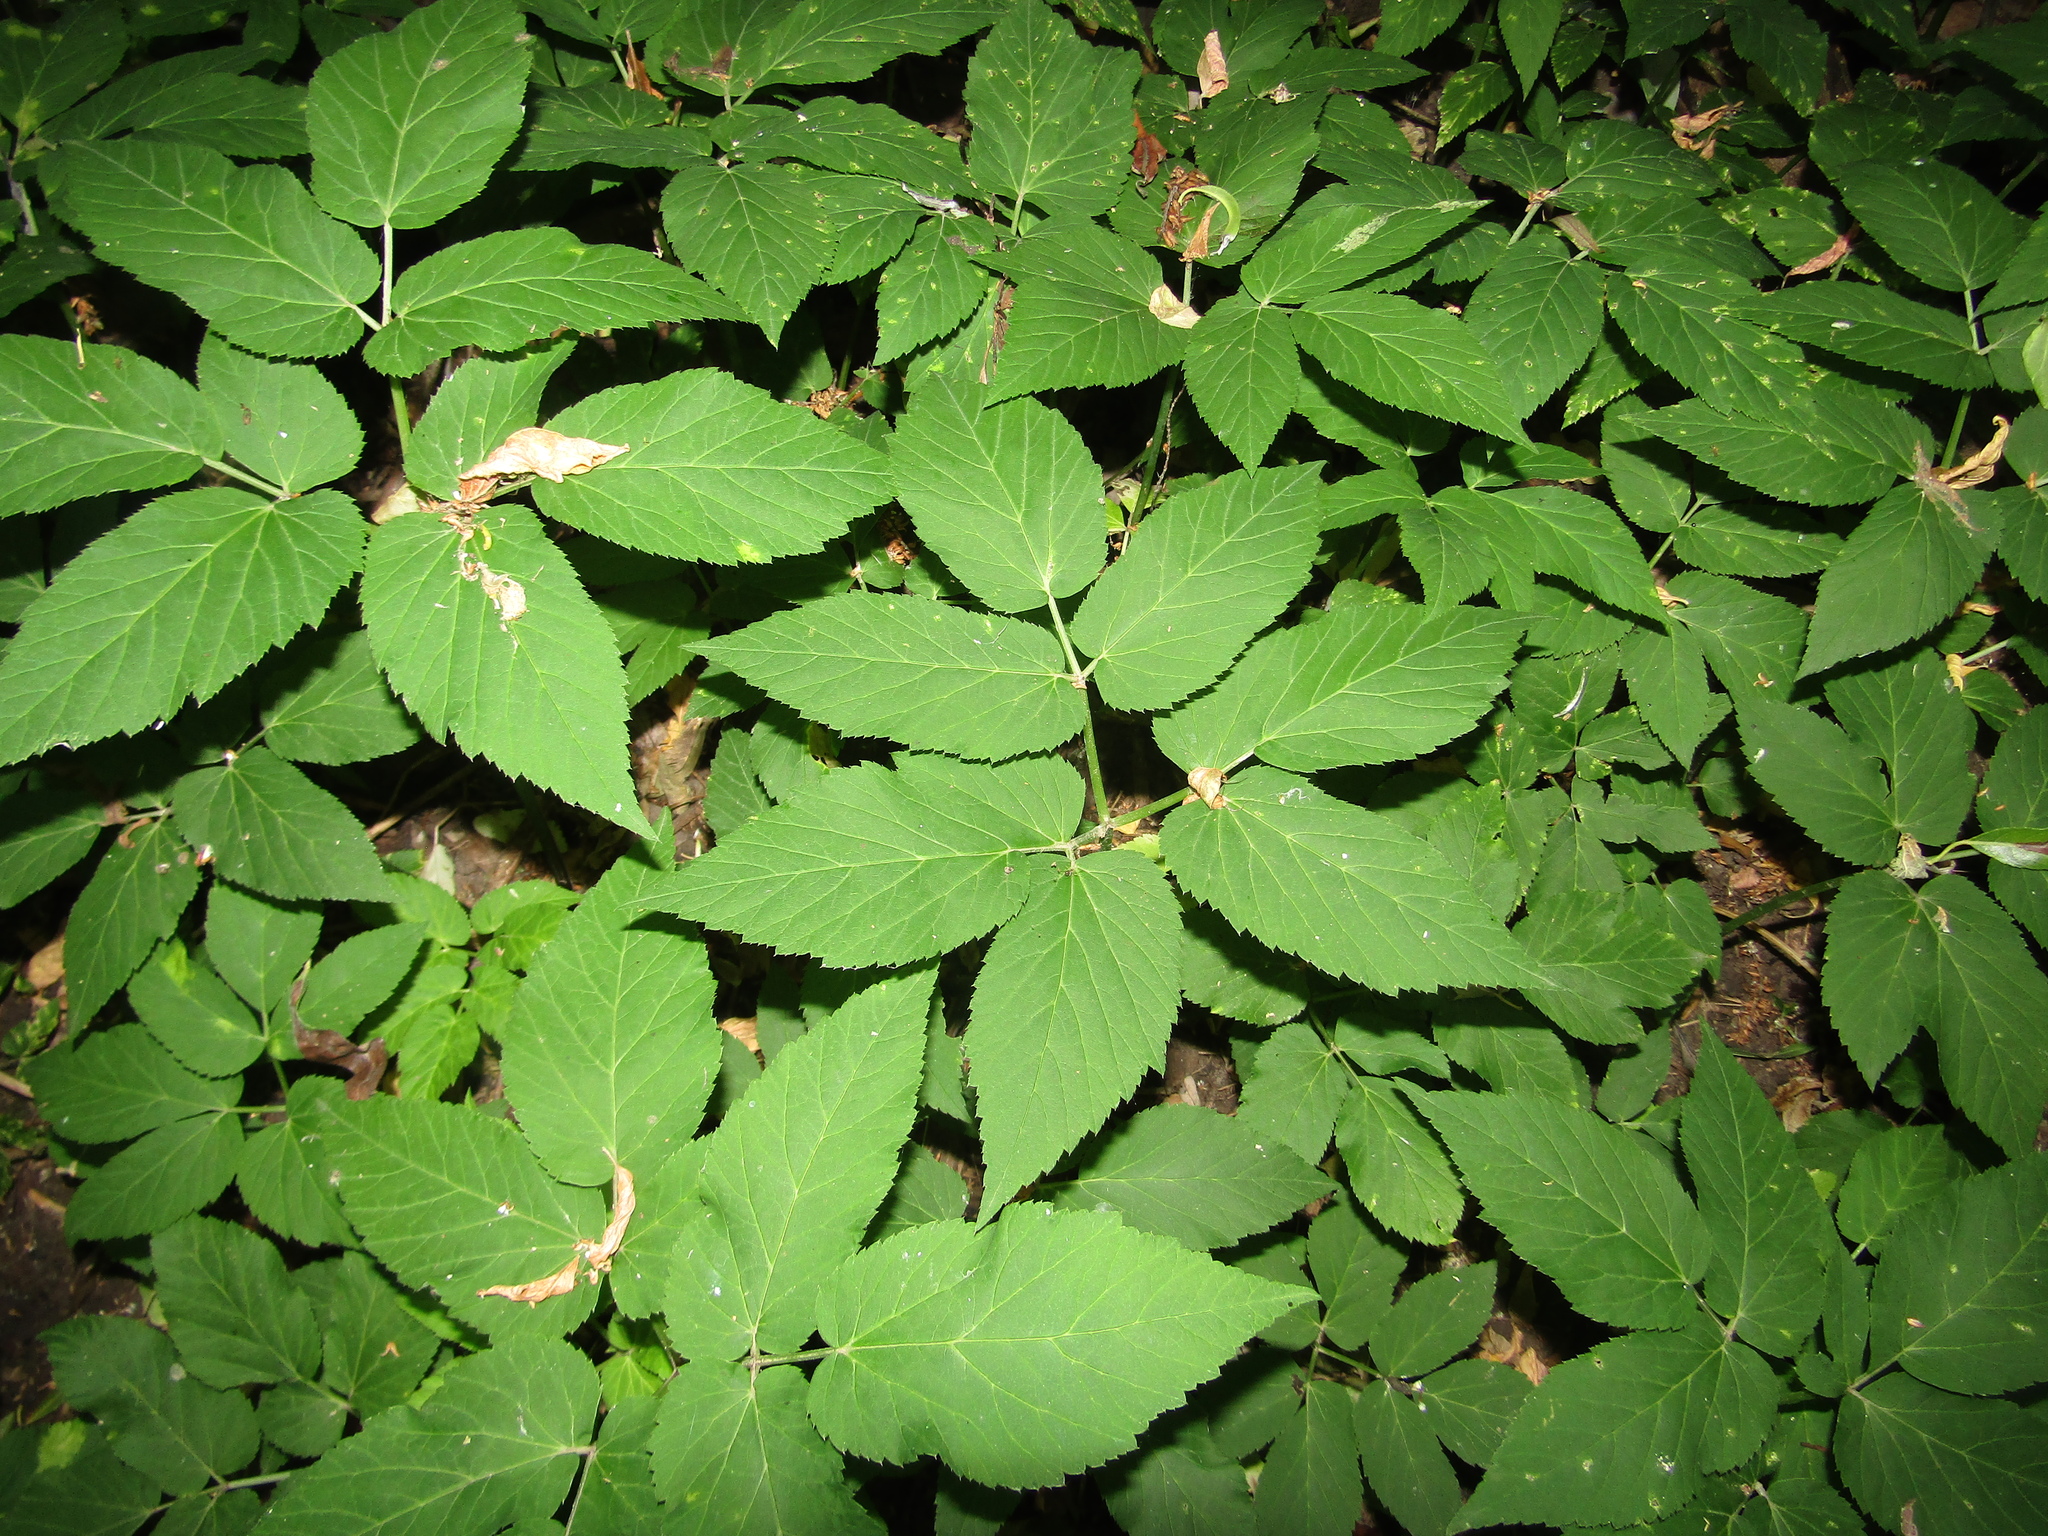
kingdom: Plantae
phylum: Tracheophyta
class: Magnoliopsida
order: Apiales
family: Apiaceae
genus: Aegopodium
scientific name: Aegopodium podagraria
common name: Ground-elder
